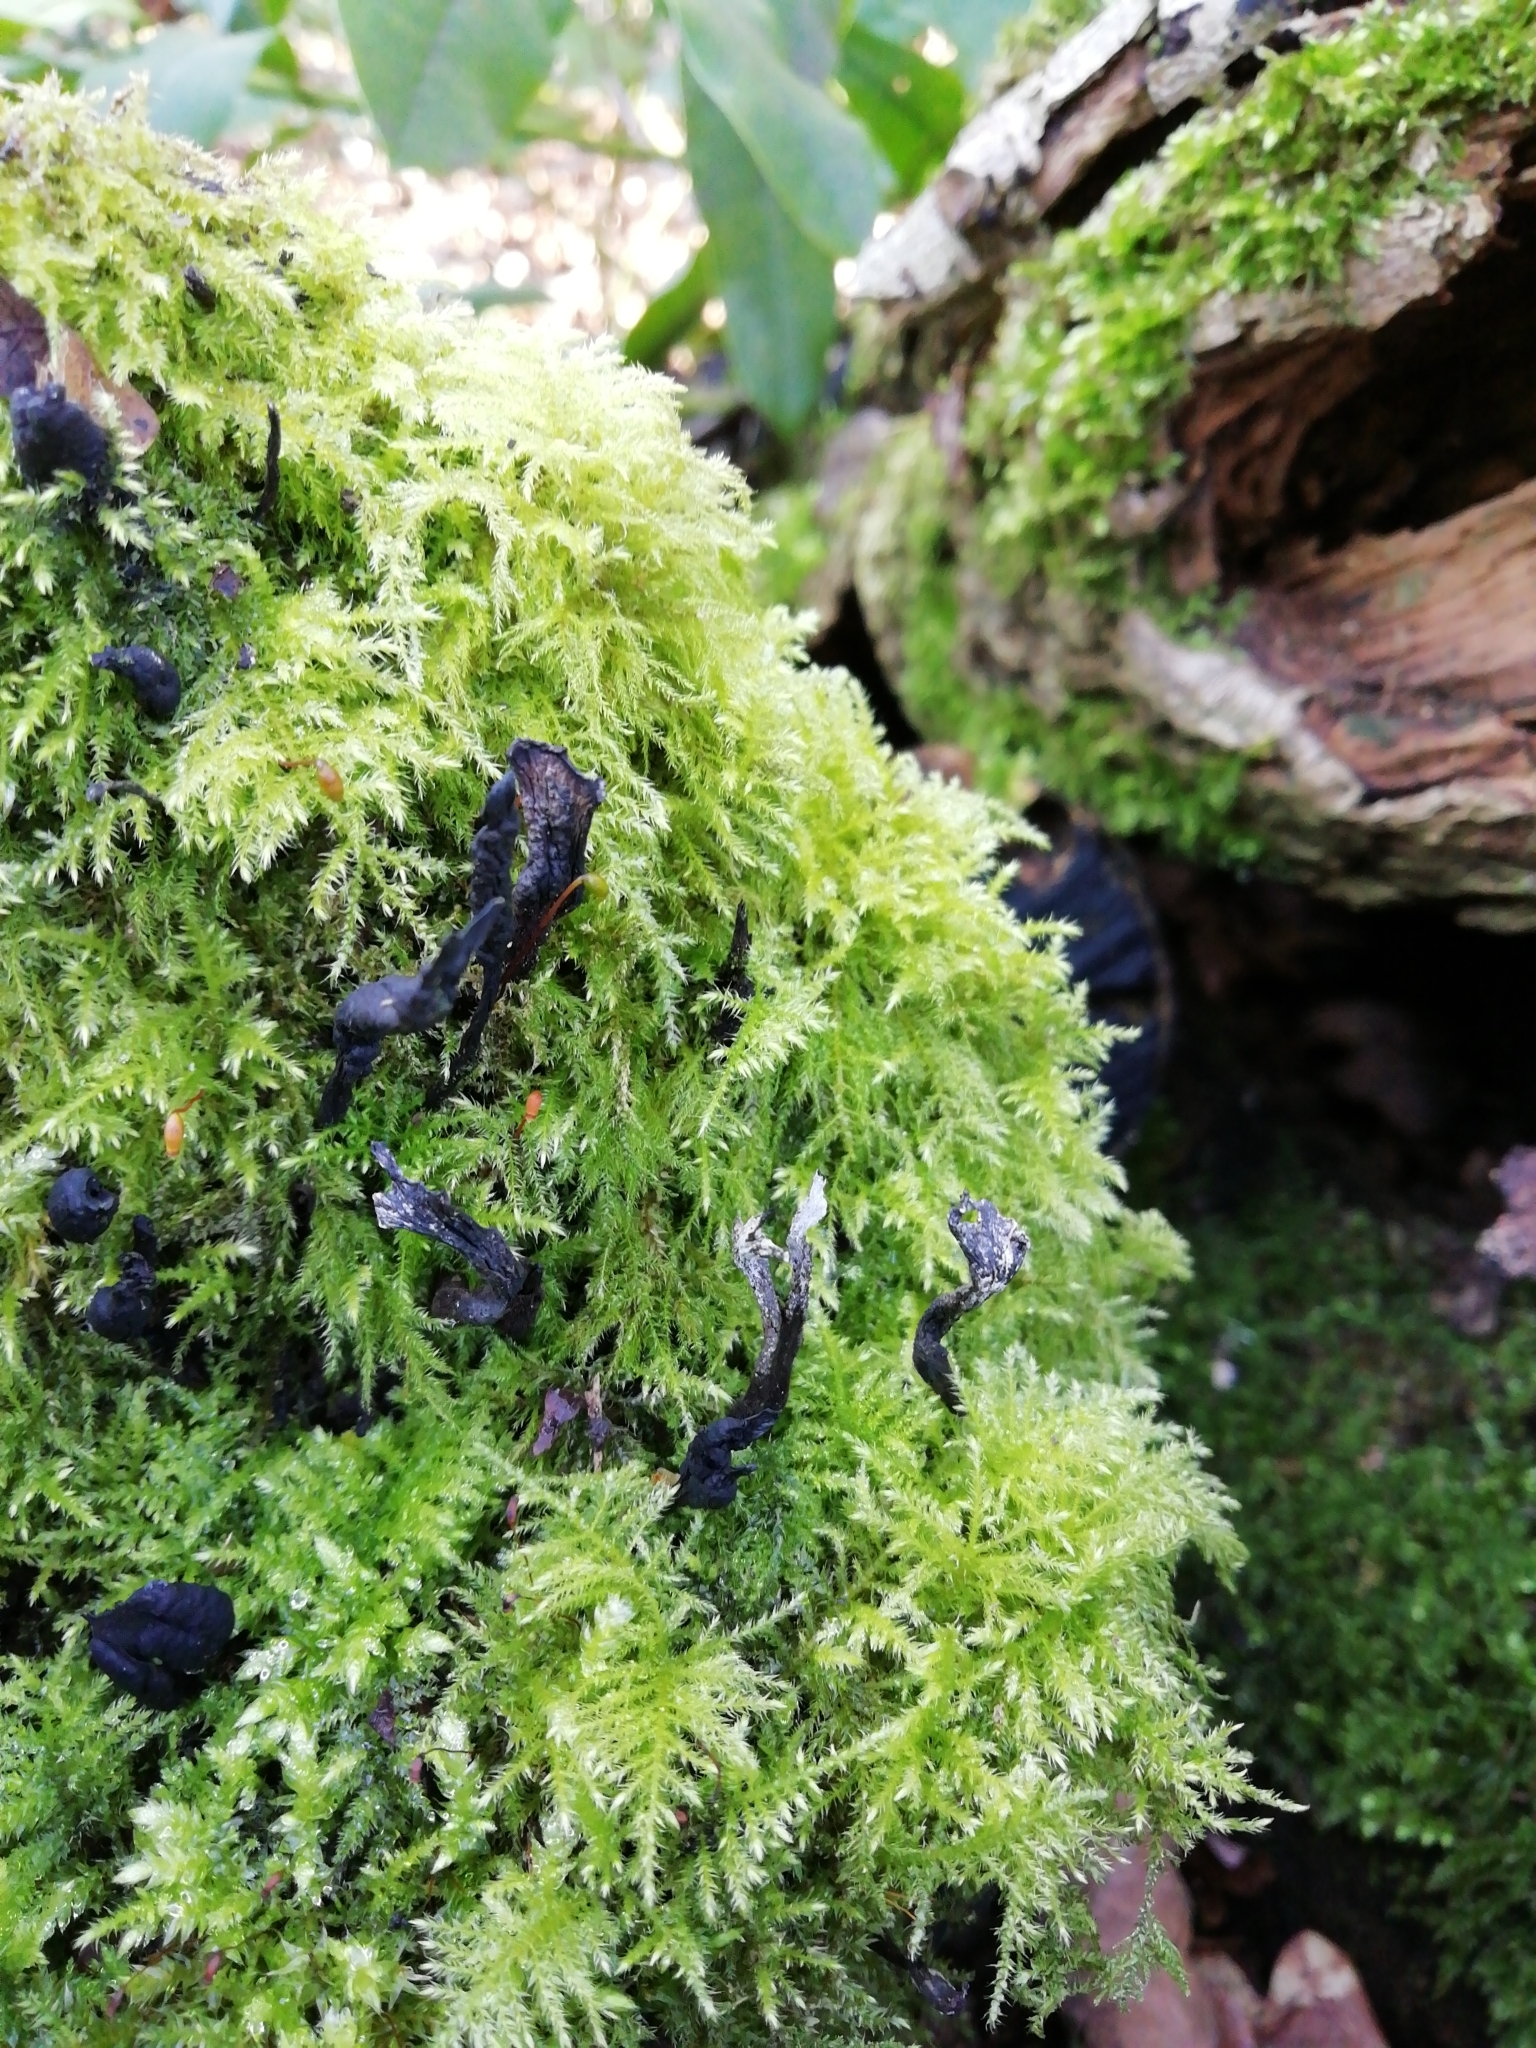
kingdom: Fungi
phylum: Ascomycota
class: Sordariomycetes
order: Xylariales
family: Xylariaceae
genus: Xylaria
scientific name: Xylaria hypoxylon
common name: Candle-snuff fungus
